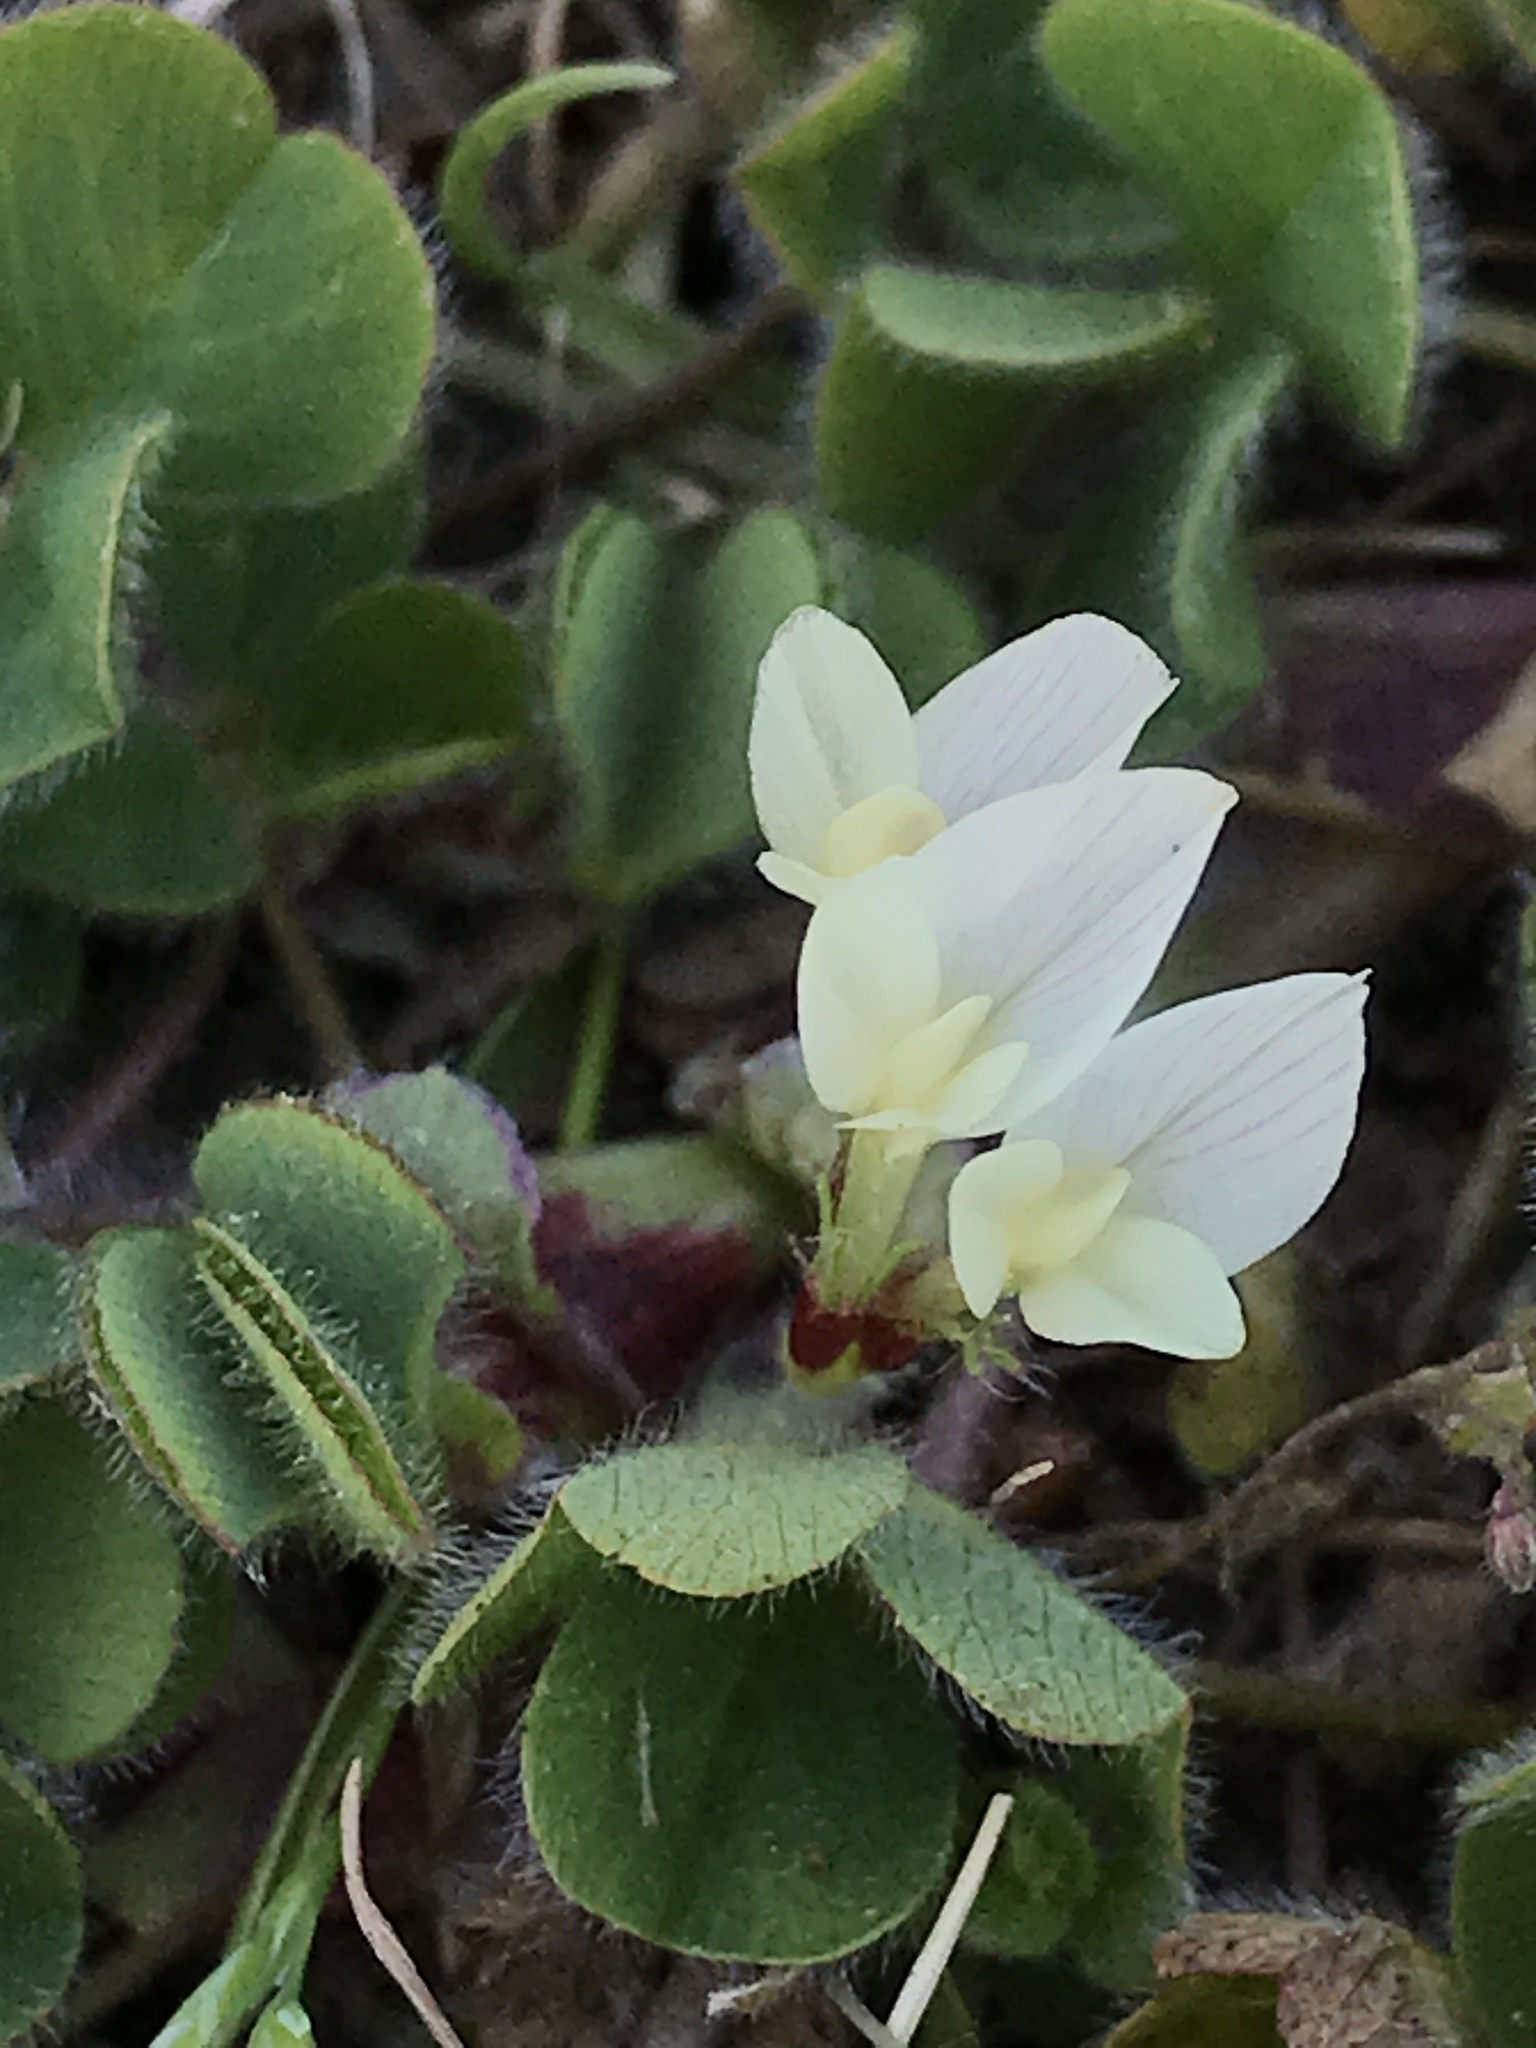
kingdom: Plantae
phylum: Tracheophyta
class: Magnoliopsida
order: Fabales
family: Fabaceae
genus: Trifolium
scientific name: Trifolium subterraneum
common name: Subterranean clover
